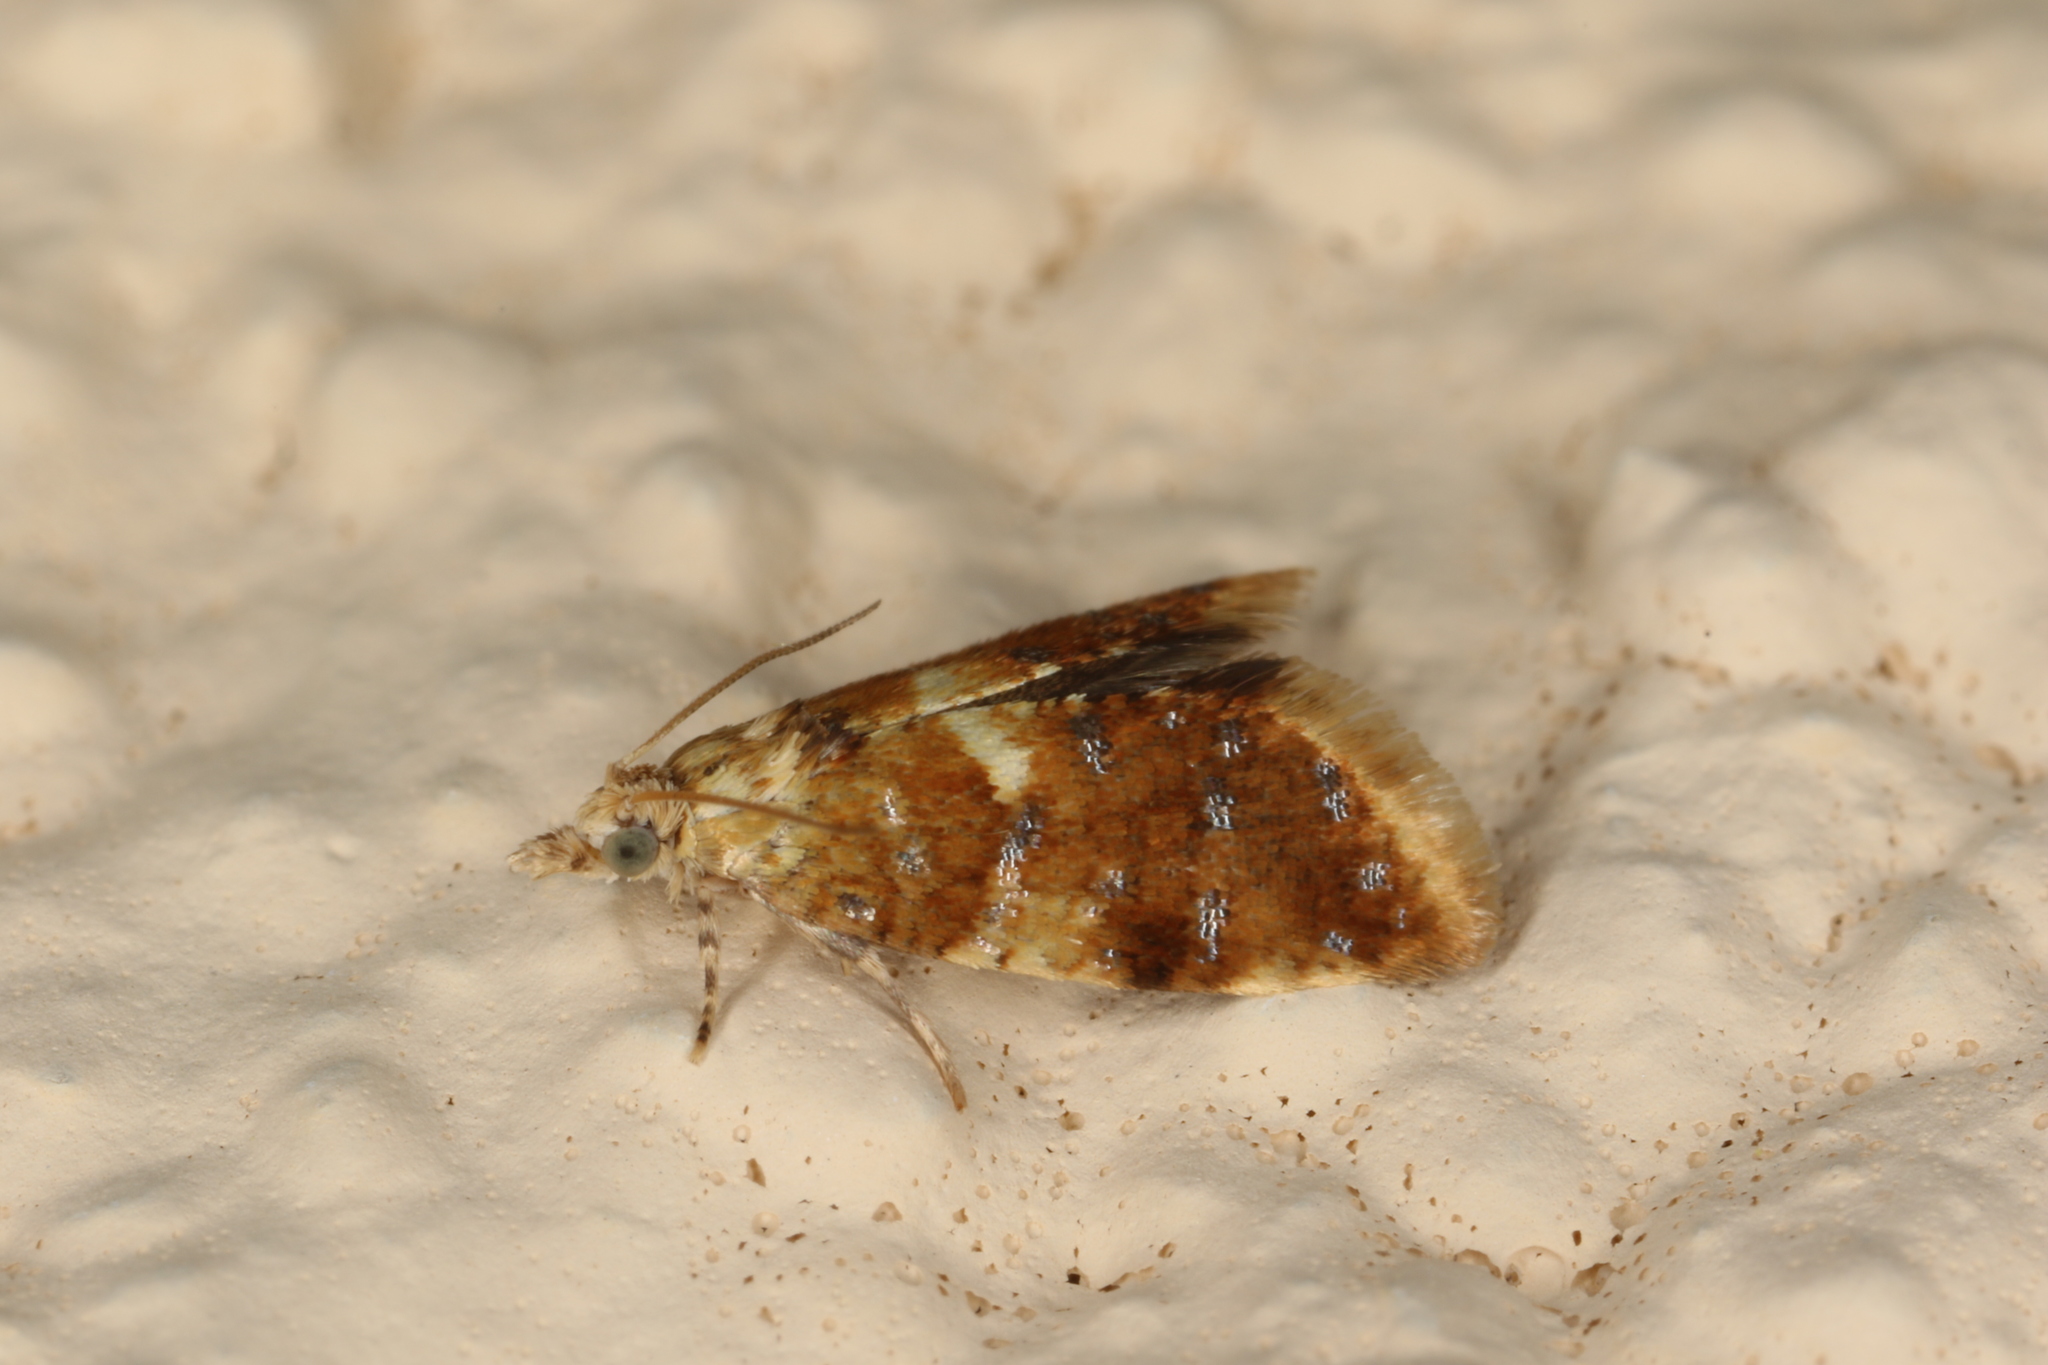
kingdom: Animalia
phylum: Arthropoda
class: Insecta
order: Lepidoptera
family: Tortricidae
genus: Pseudargyrotoza
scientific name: Pseudargyrotoza conwagana
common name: Yellow-spot twist
